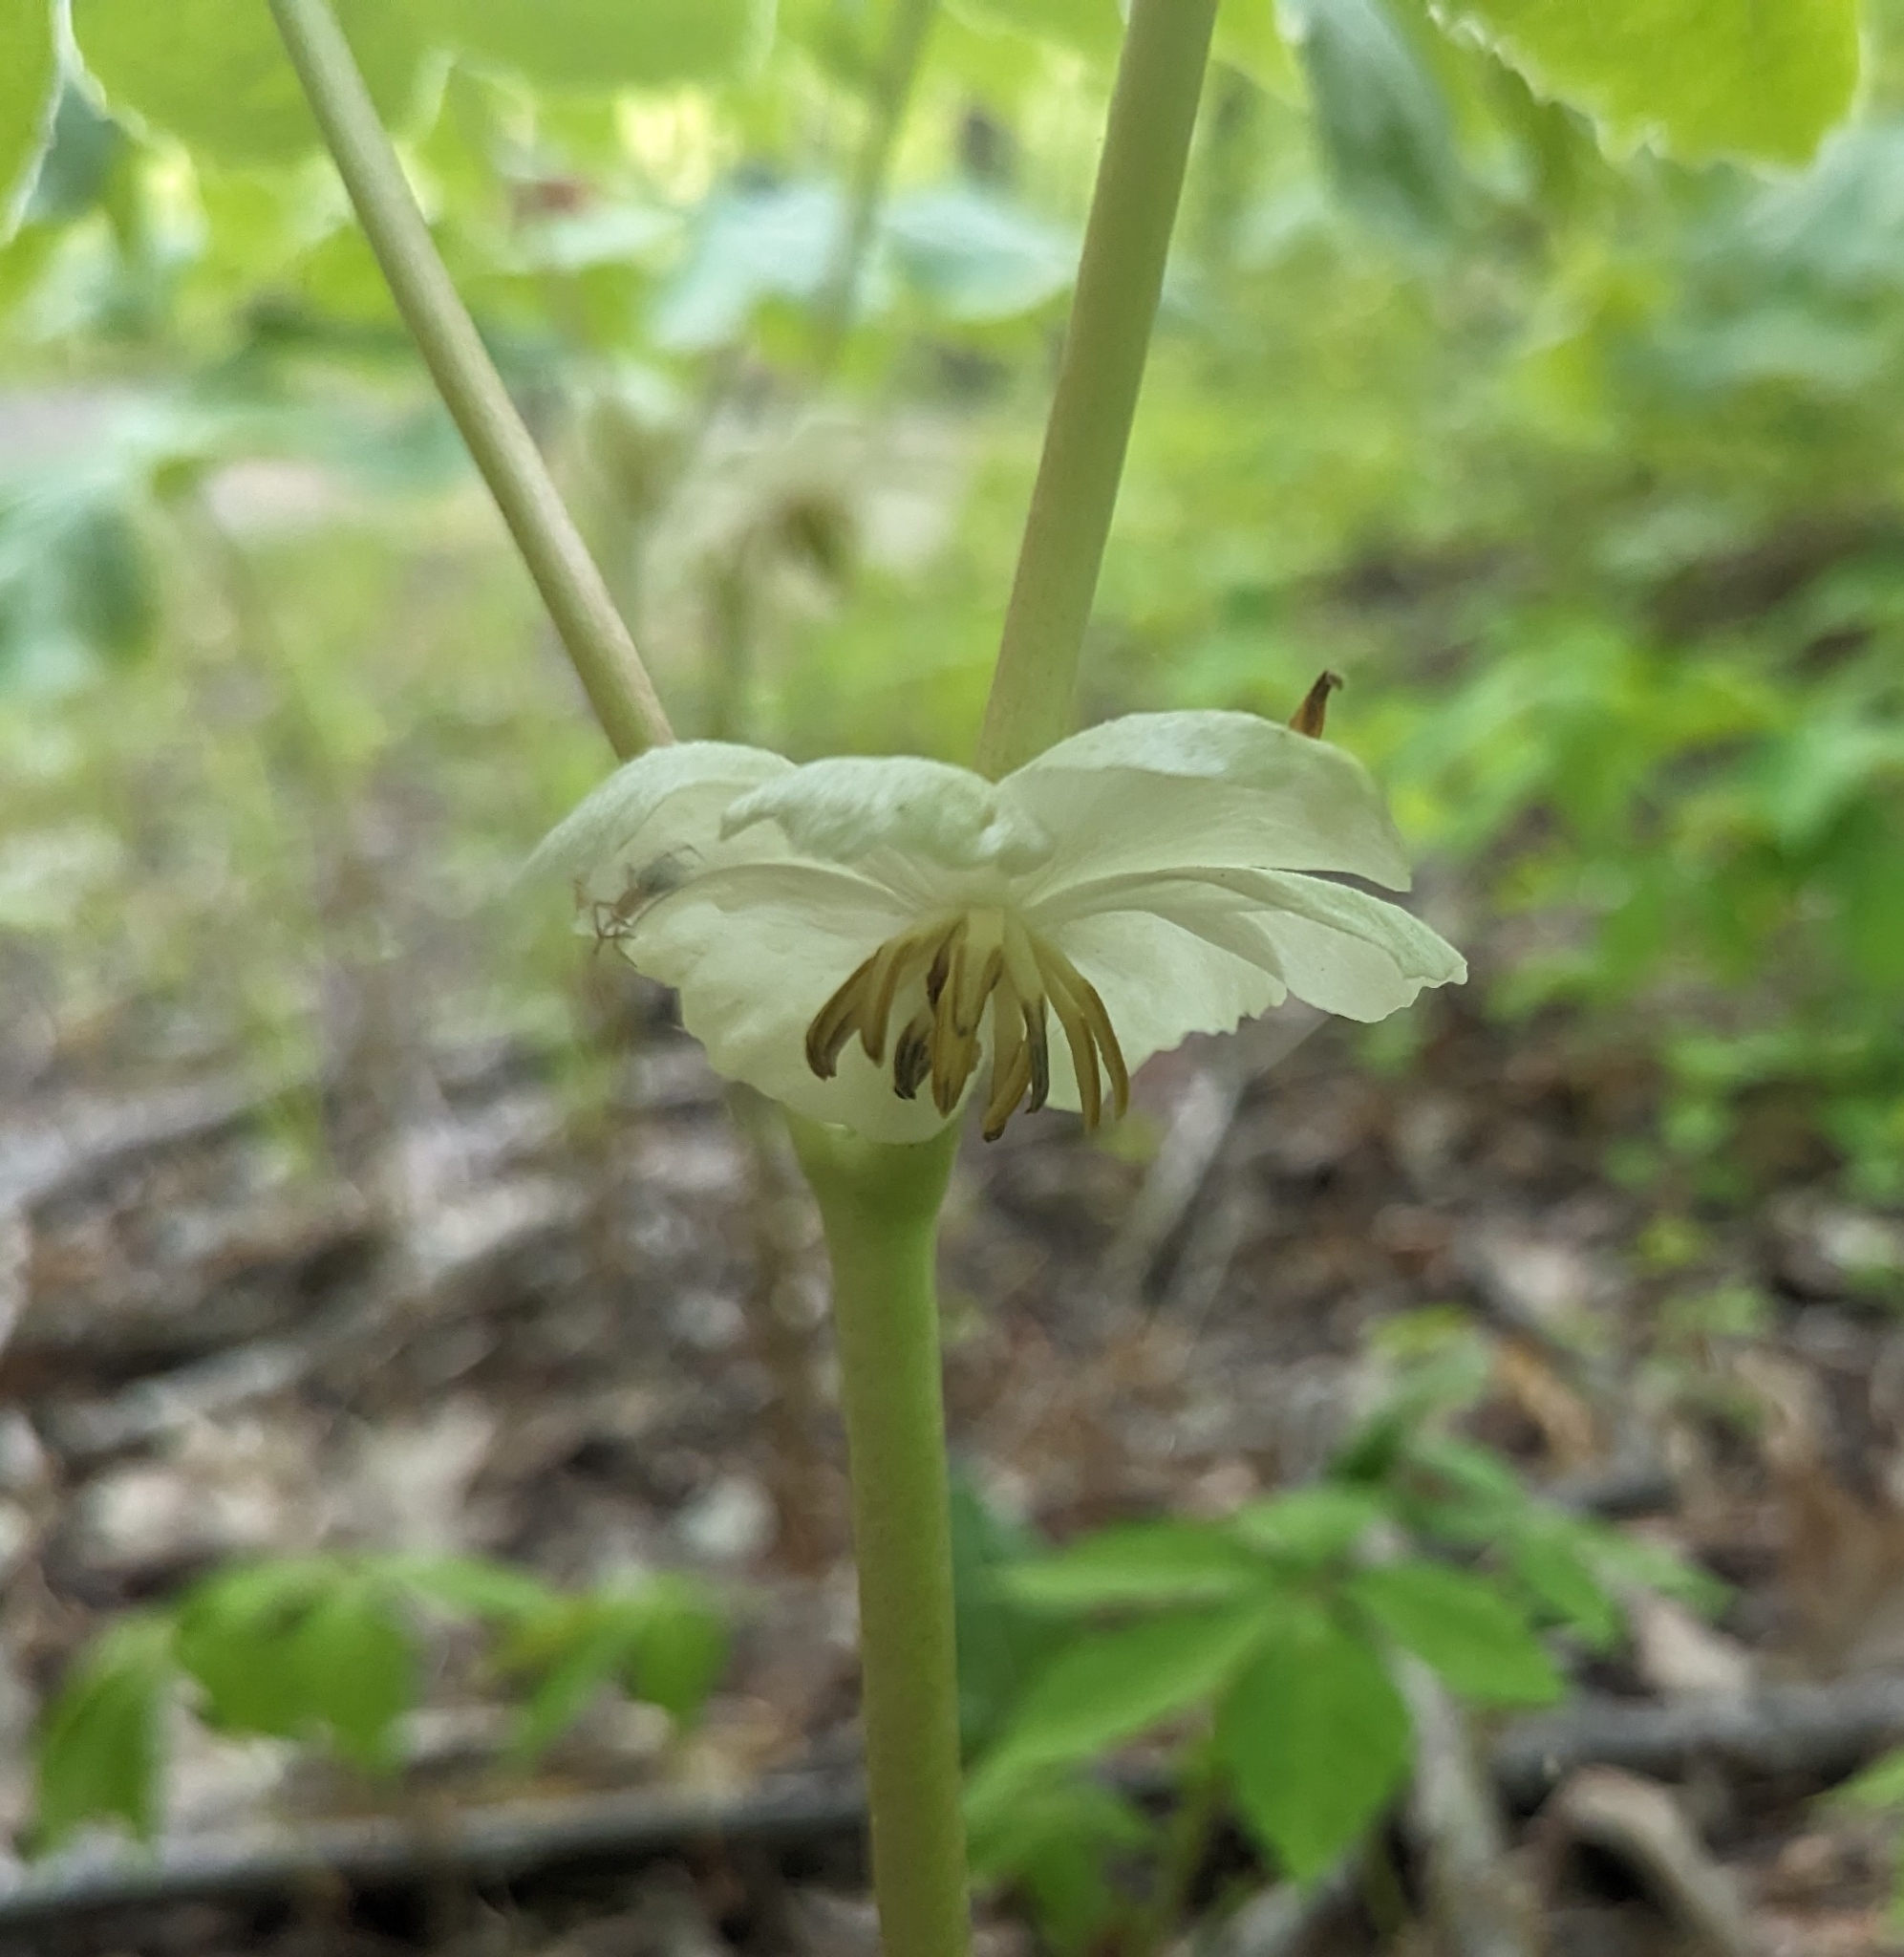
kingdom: Plantae
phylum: Tracheophyta
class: Magnoliopsida
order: Ranunculales
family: Berberidaceae
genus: Podophyllum
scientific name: Podophyllum peltatum
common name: Wild mandrake
